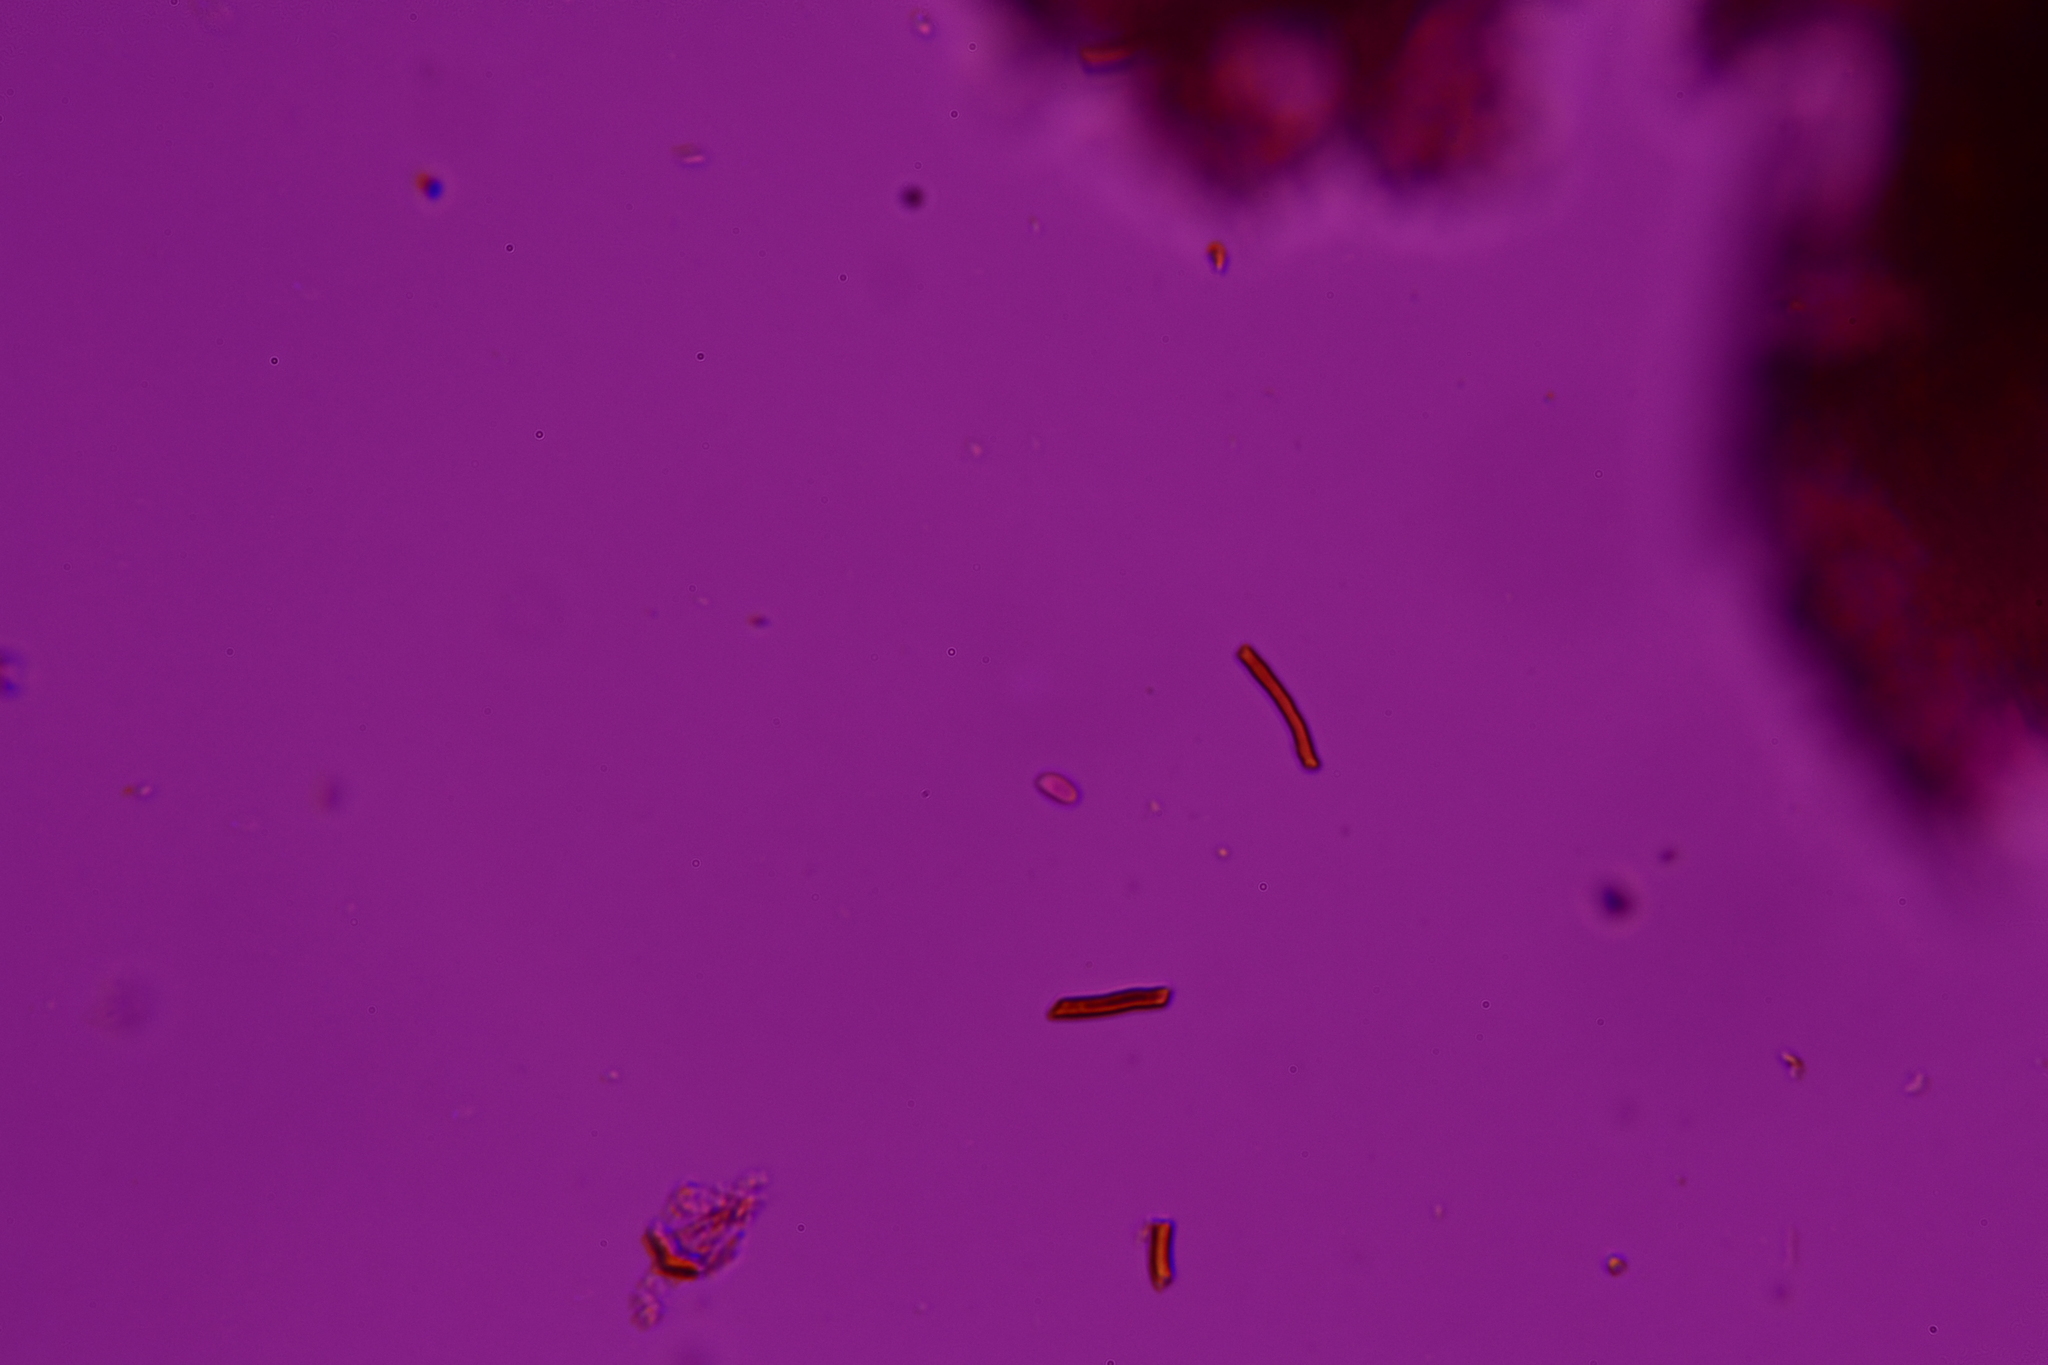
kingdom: Fungi
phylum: Basidiomycota
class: Agaricomycetes
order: Hymenochaetales
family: Hymenochaetaceae
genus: Hymenochaete
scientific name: Hymenochaete rubiginosa
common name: Oak curtain crust
